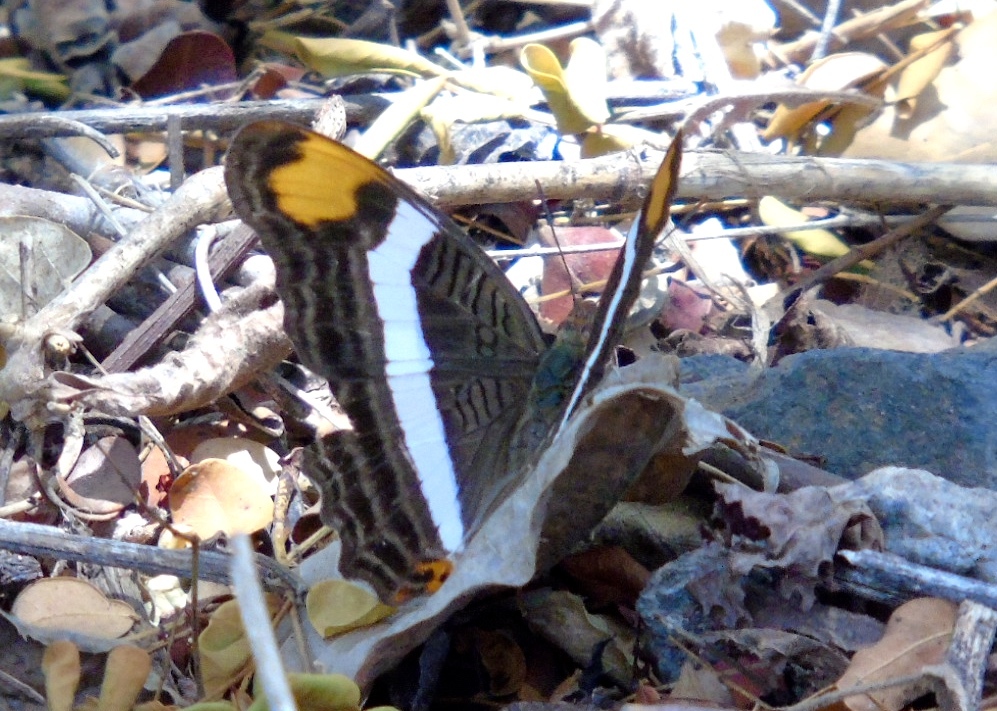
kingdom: Animalia
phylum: Arthropoda
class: Insecta
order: Lepidoptera
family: Nymphalidae
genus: Limenitis
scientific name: Limenitis fessonia
